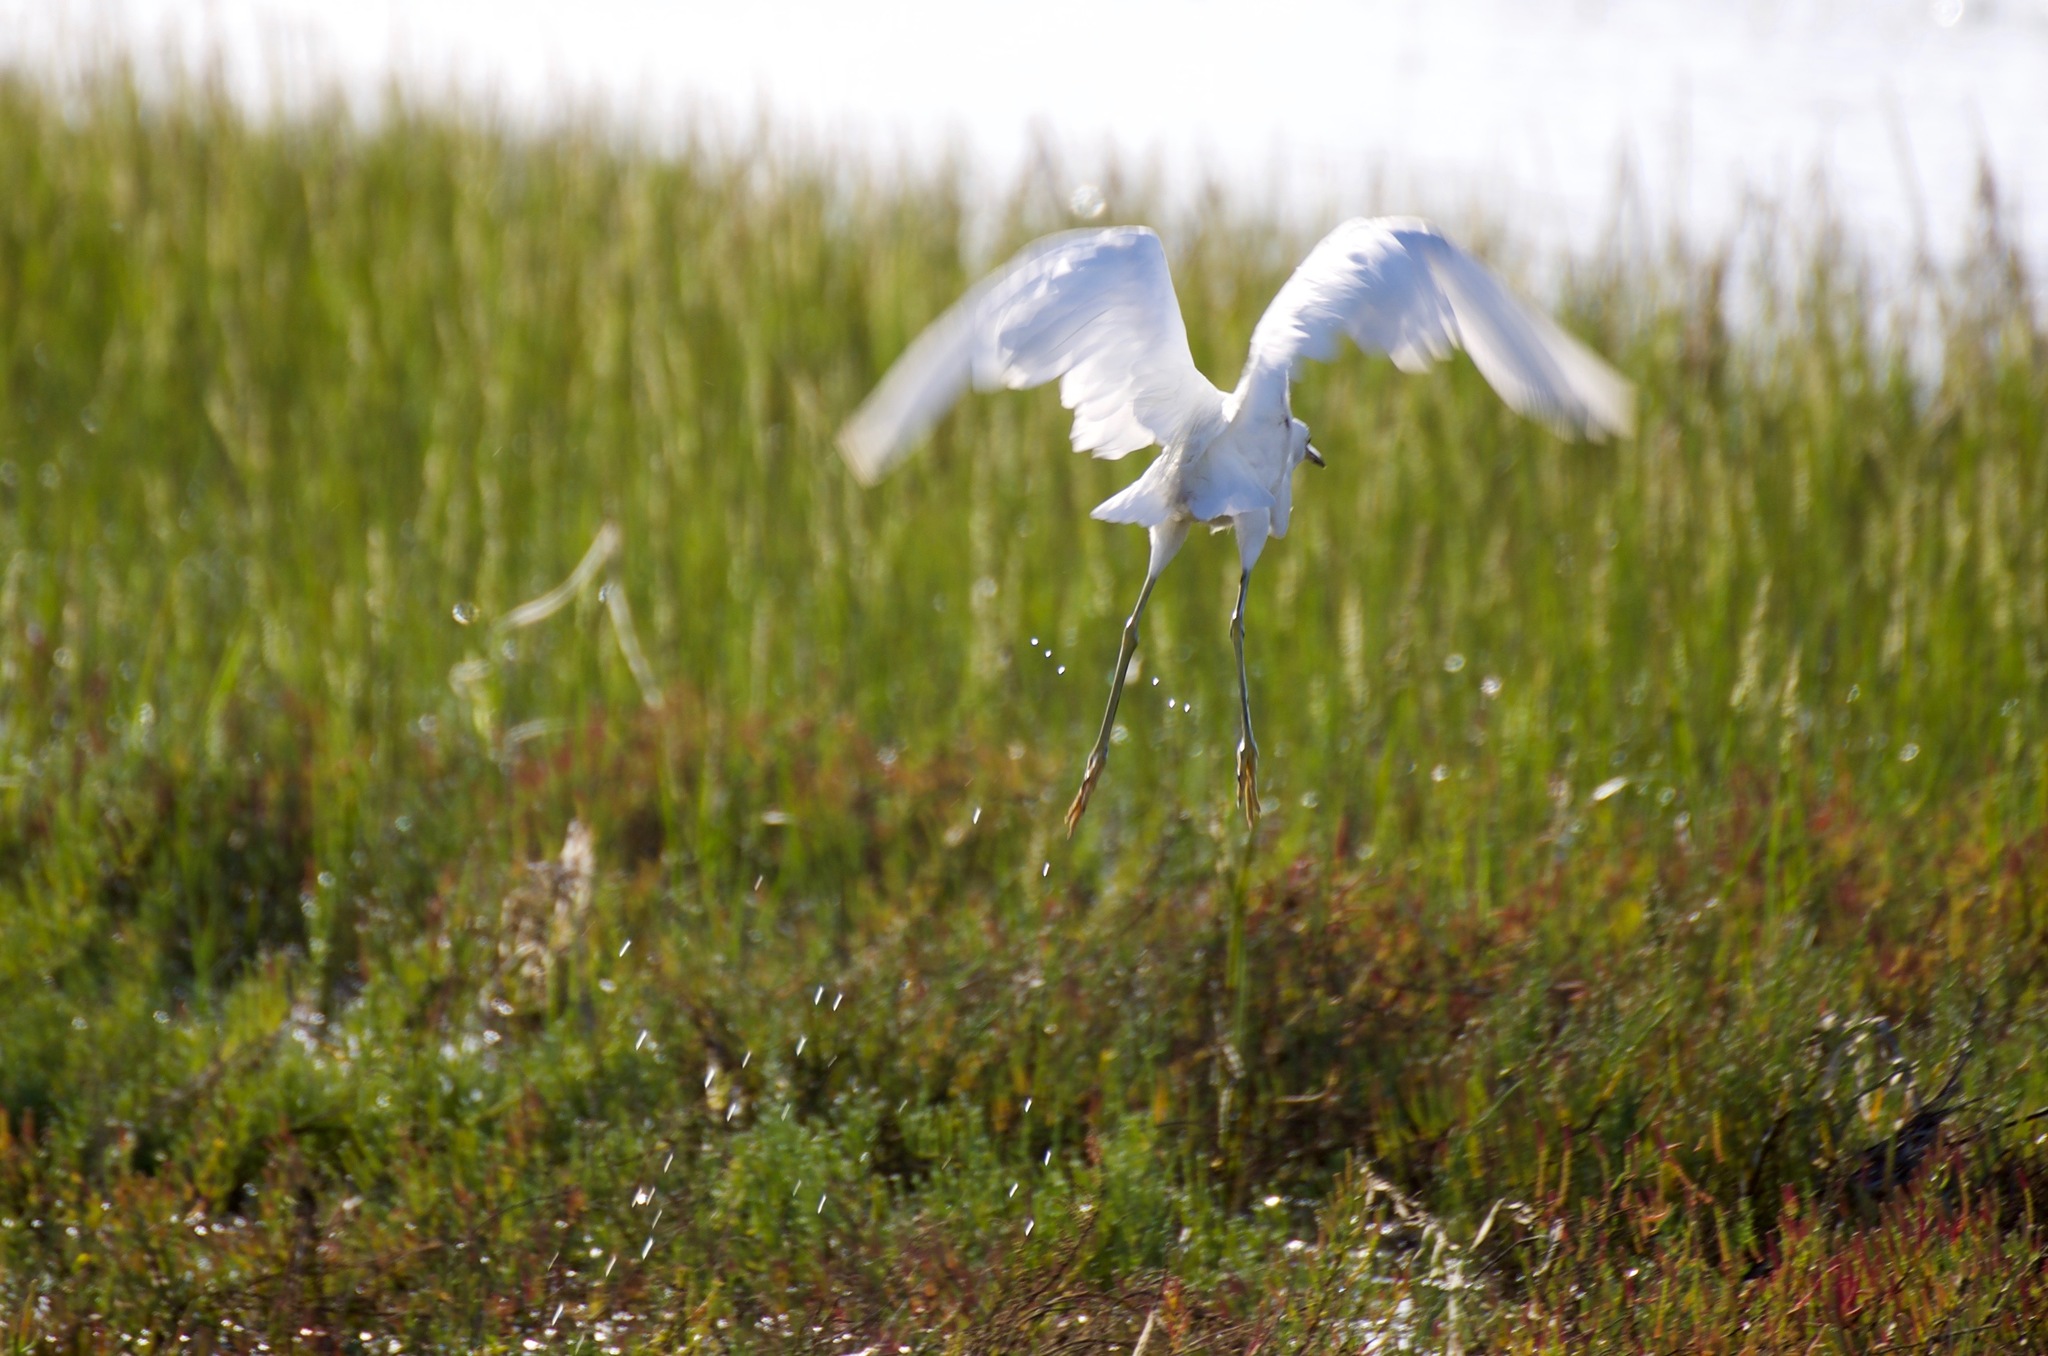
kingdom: Animalia
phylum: Chordata
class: Aves
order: Pelecaniformes
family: Ardeidae
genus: Egretta
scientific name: Egretta thula
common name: Snowy egret
